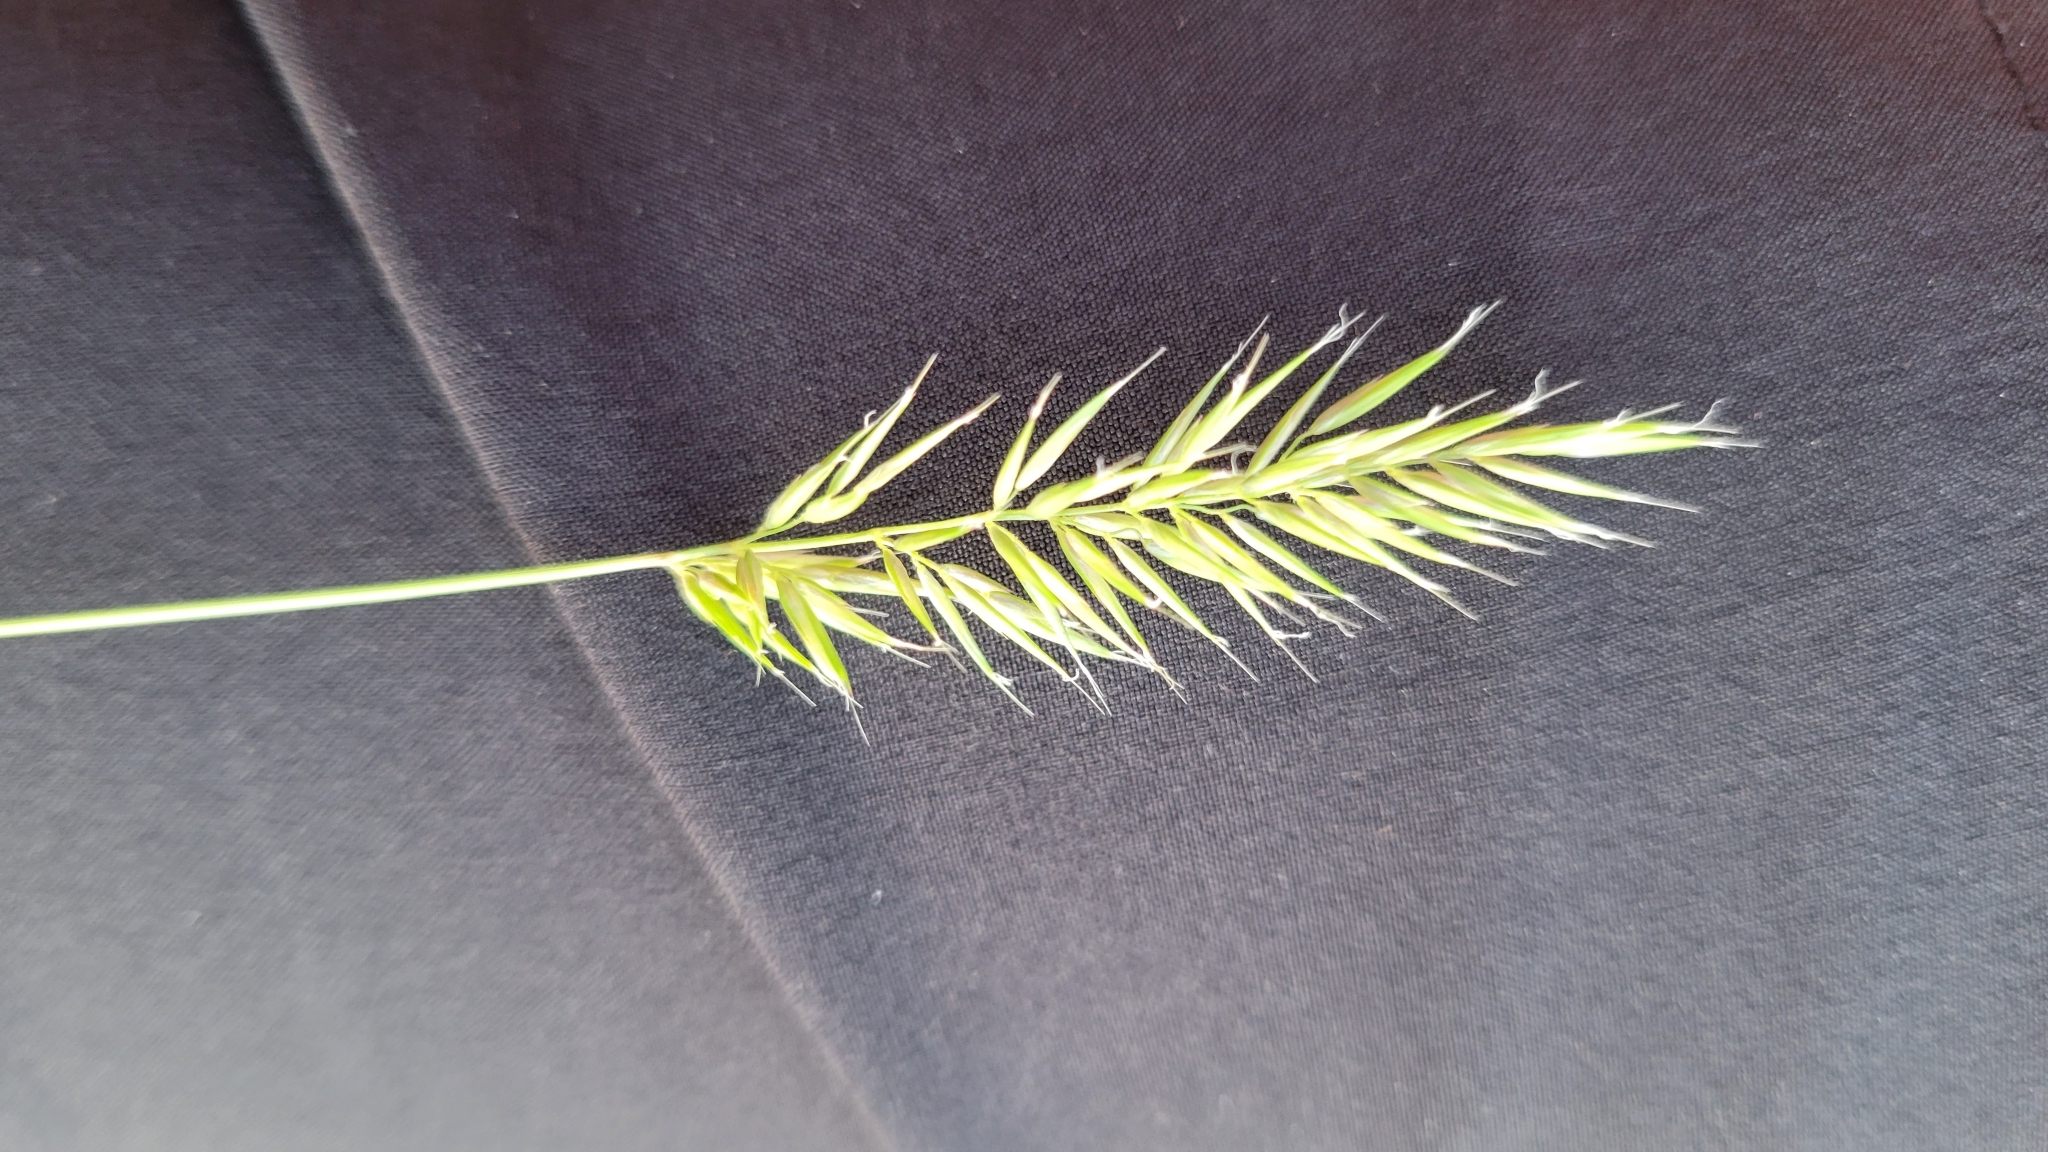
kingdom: Plantae
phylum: Tracheophyta
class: Liliopsida
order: Poales
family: Poaceae
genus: Anthoxanthum
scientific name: Anthoxanthum odoratum
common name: Sweet vernalgrass
